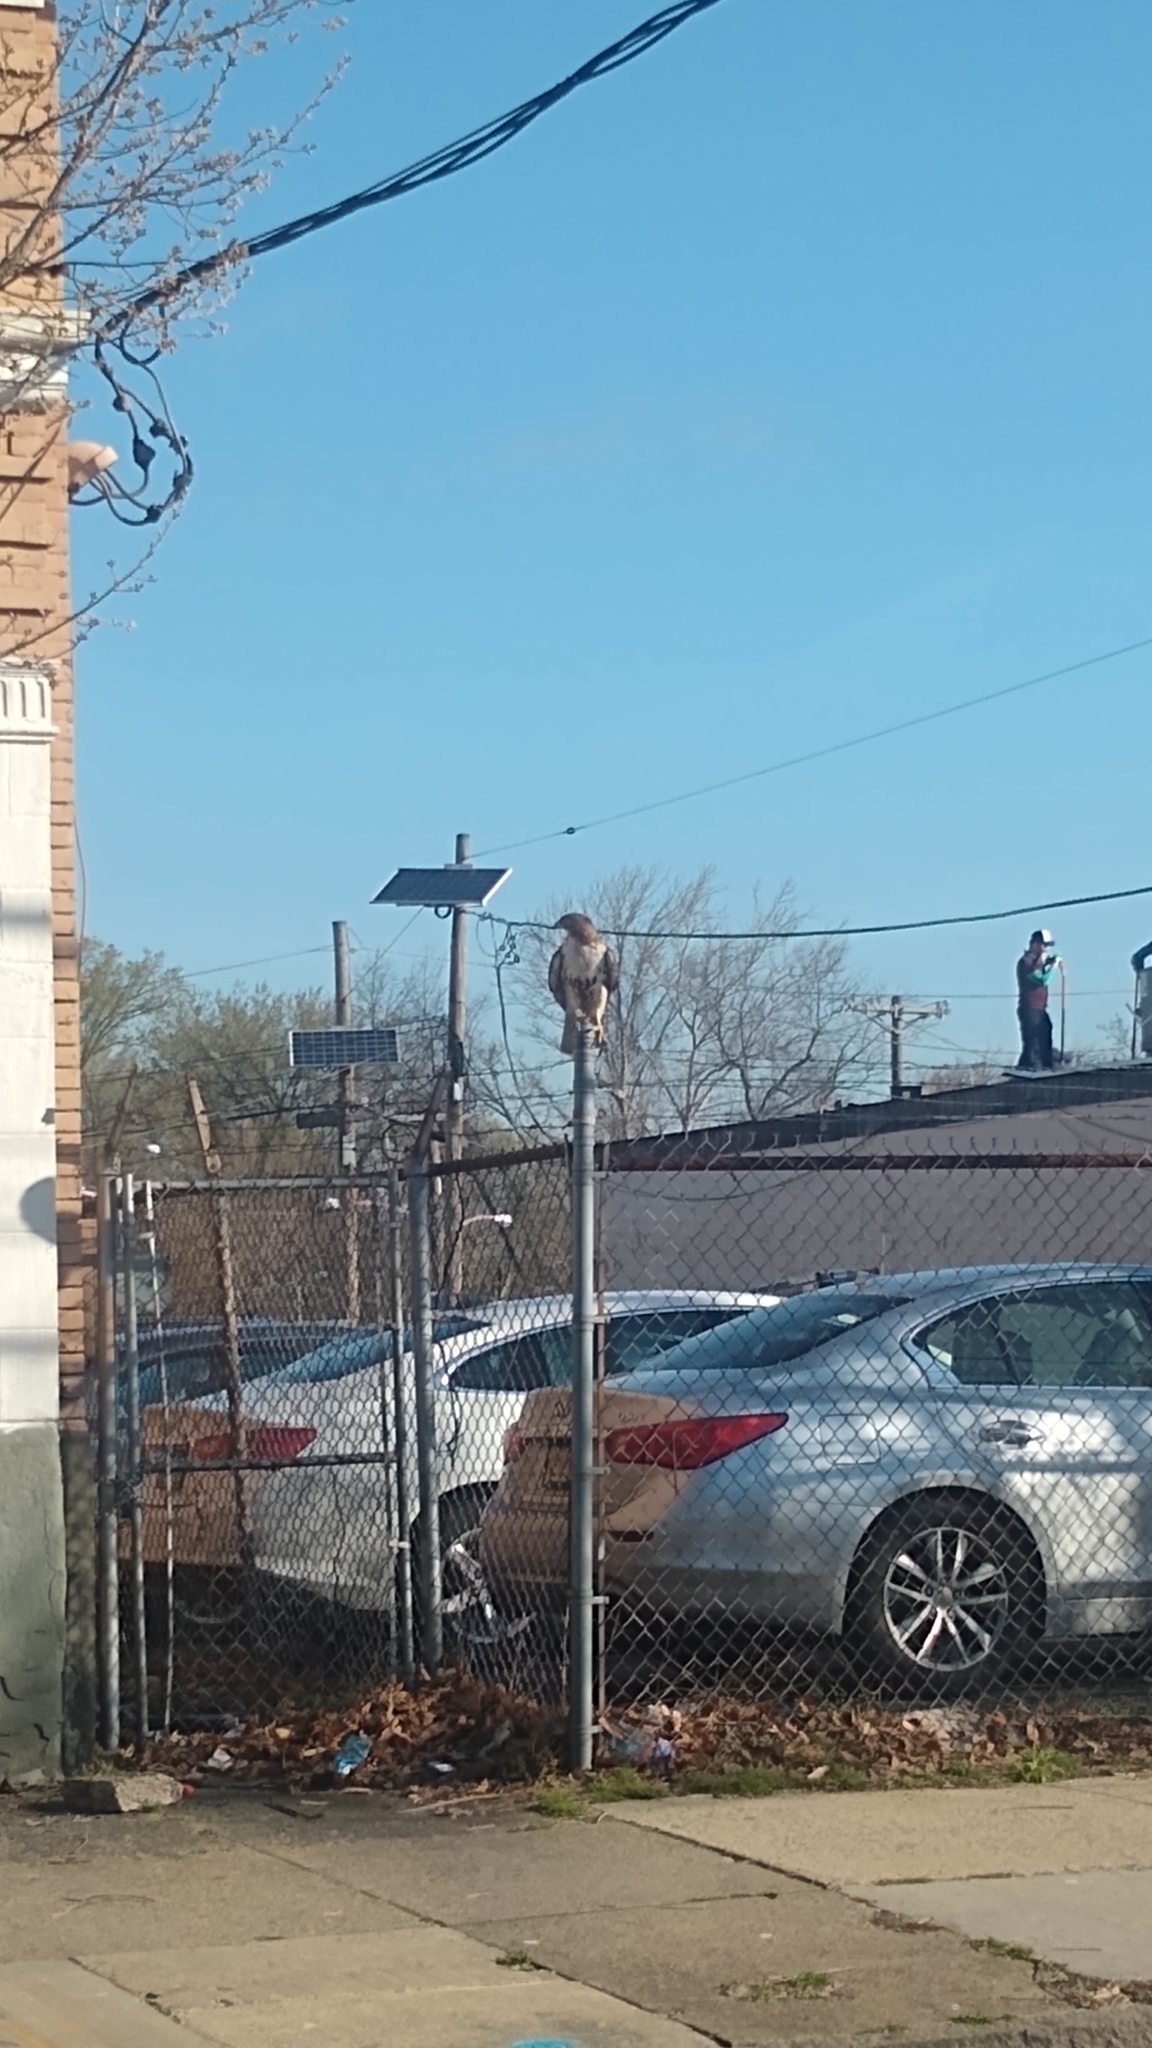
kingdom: Animalia
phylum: Chordata
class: Aves
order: Accipitriformes
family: Accipitridae
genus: Buteo
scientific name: Buteo jamaicensis
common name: Red-tailed hawk
